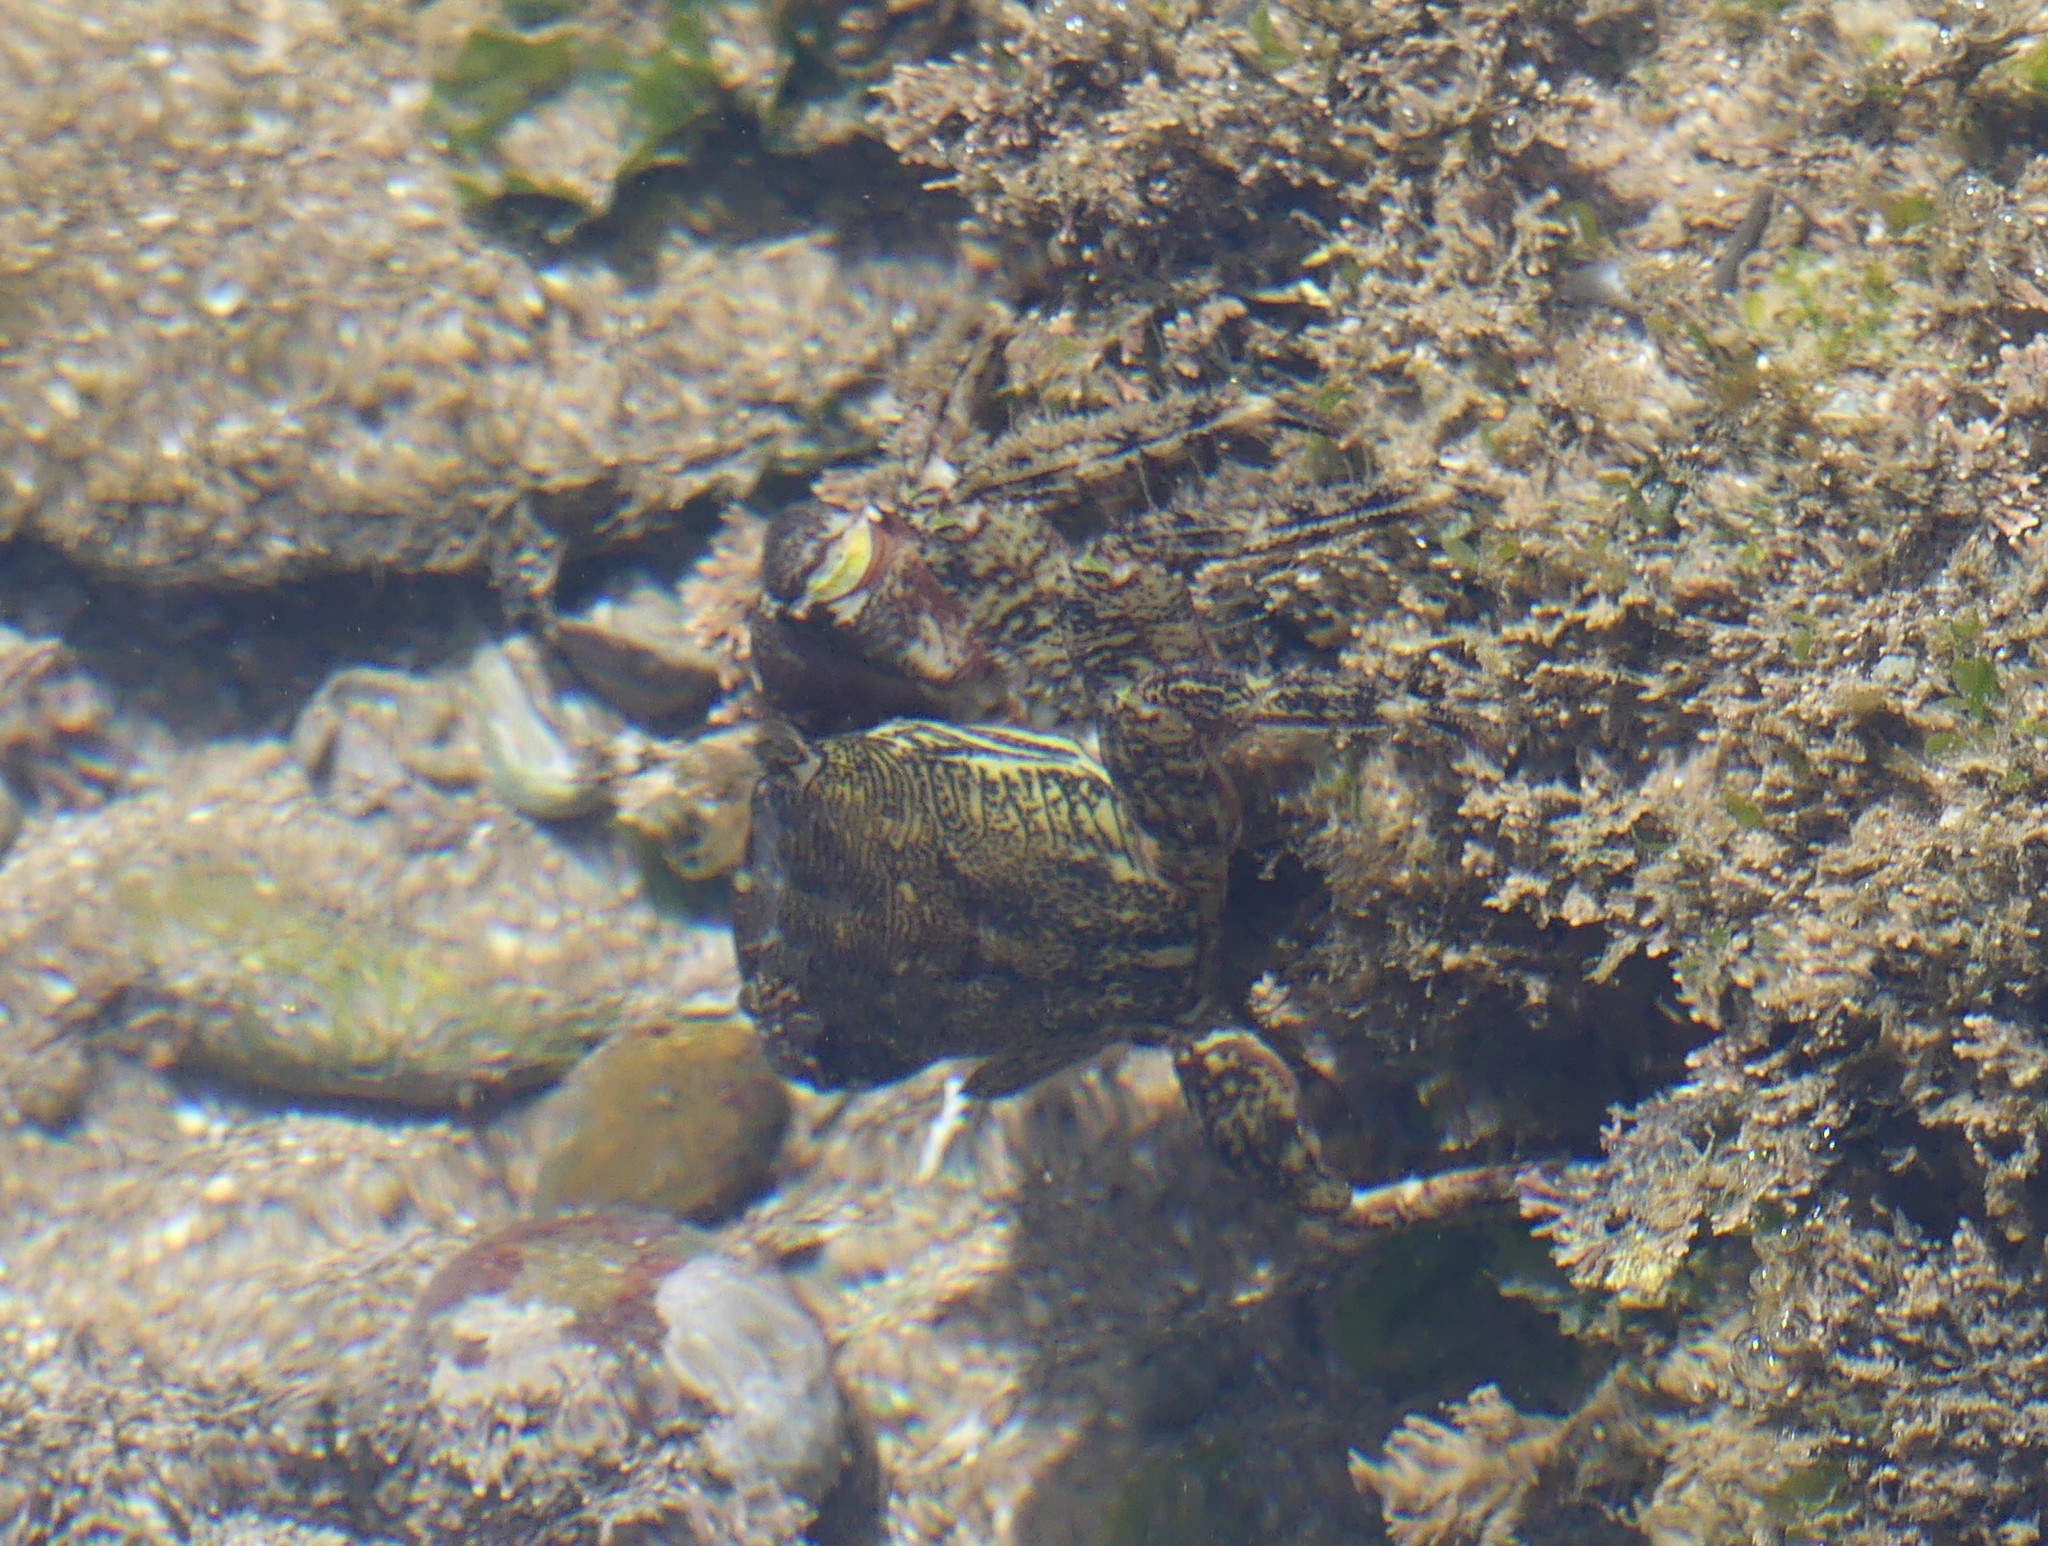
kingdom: Animalia
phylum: Arthropoda
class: Malacostraca
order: Decapoda
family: Grapsidae
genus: Pachygrapsus
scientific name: Pachygrapsus marmoratus
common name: Marbled rock crab
